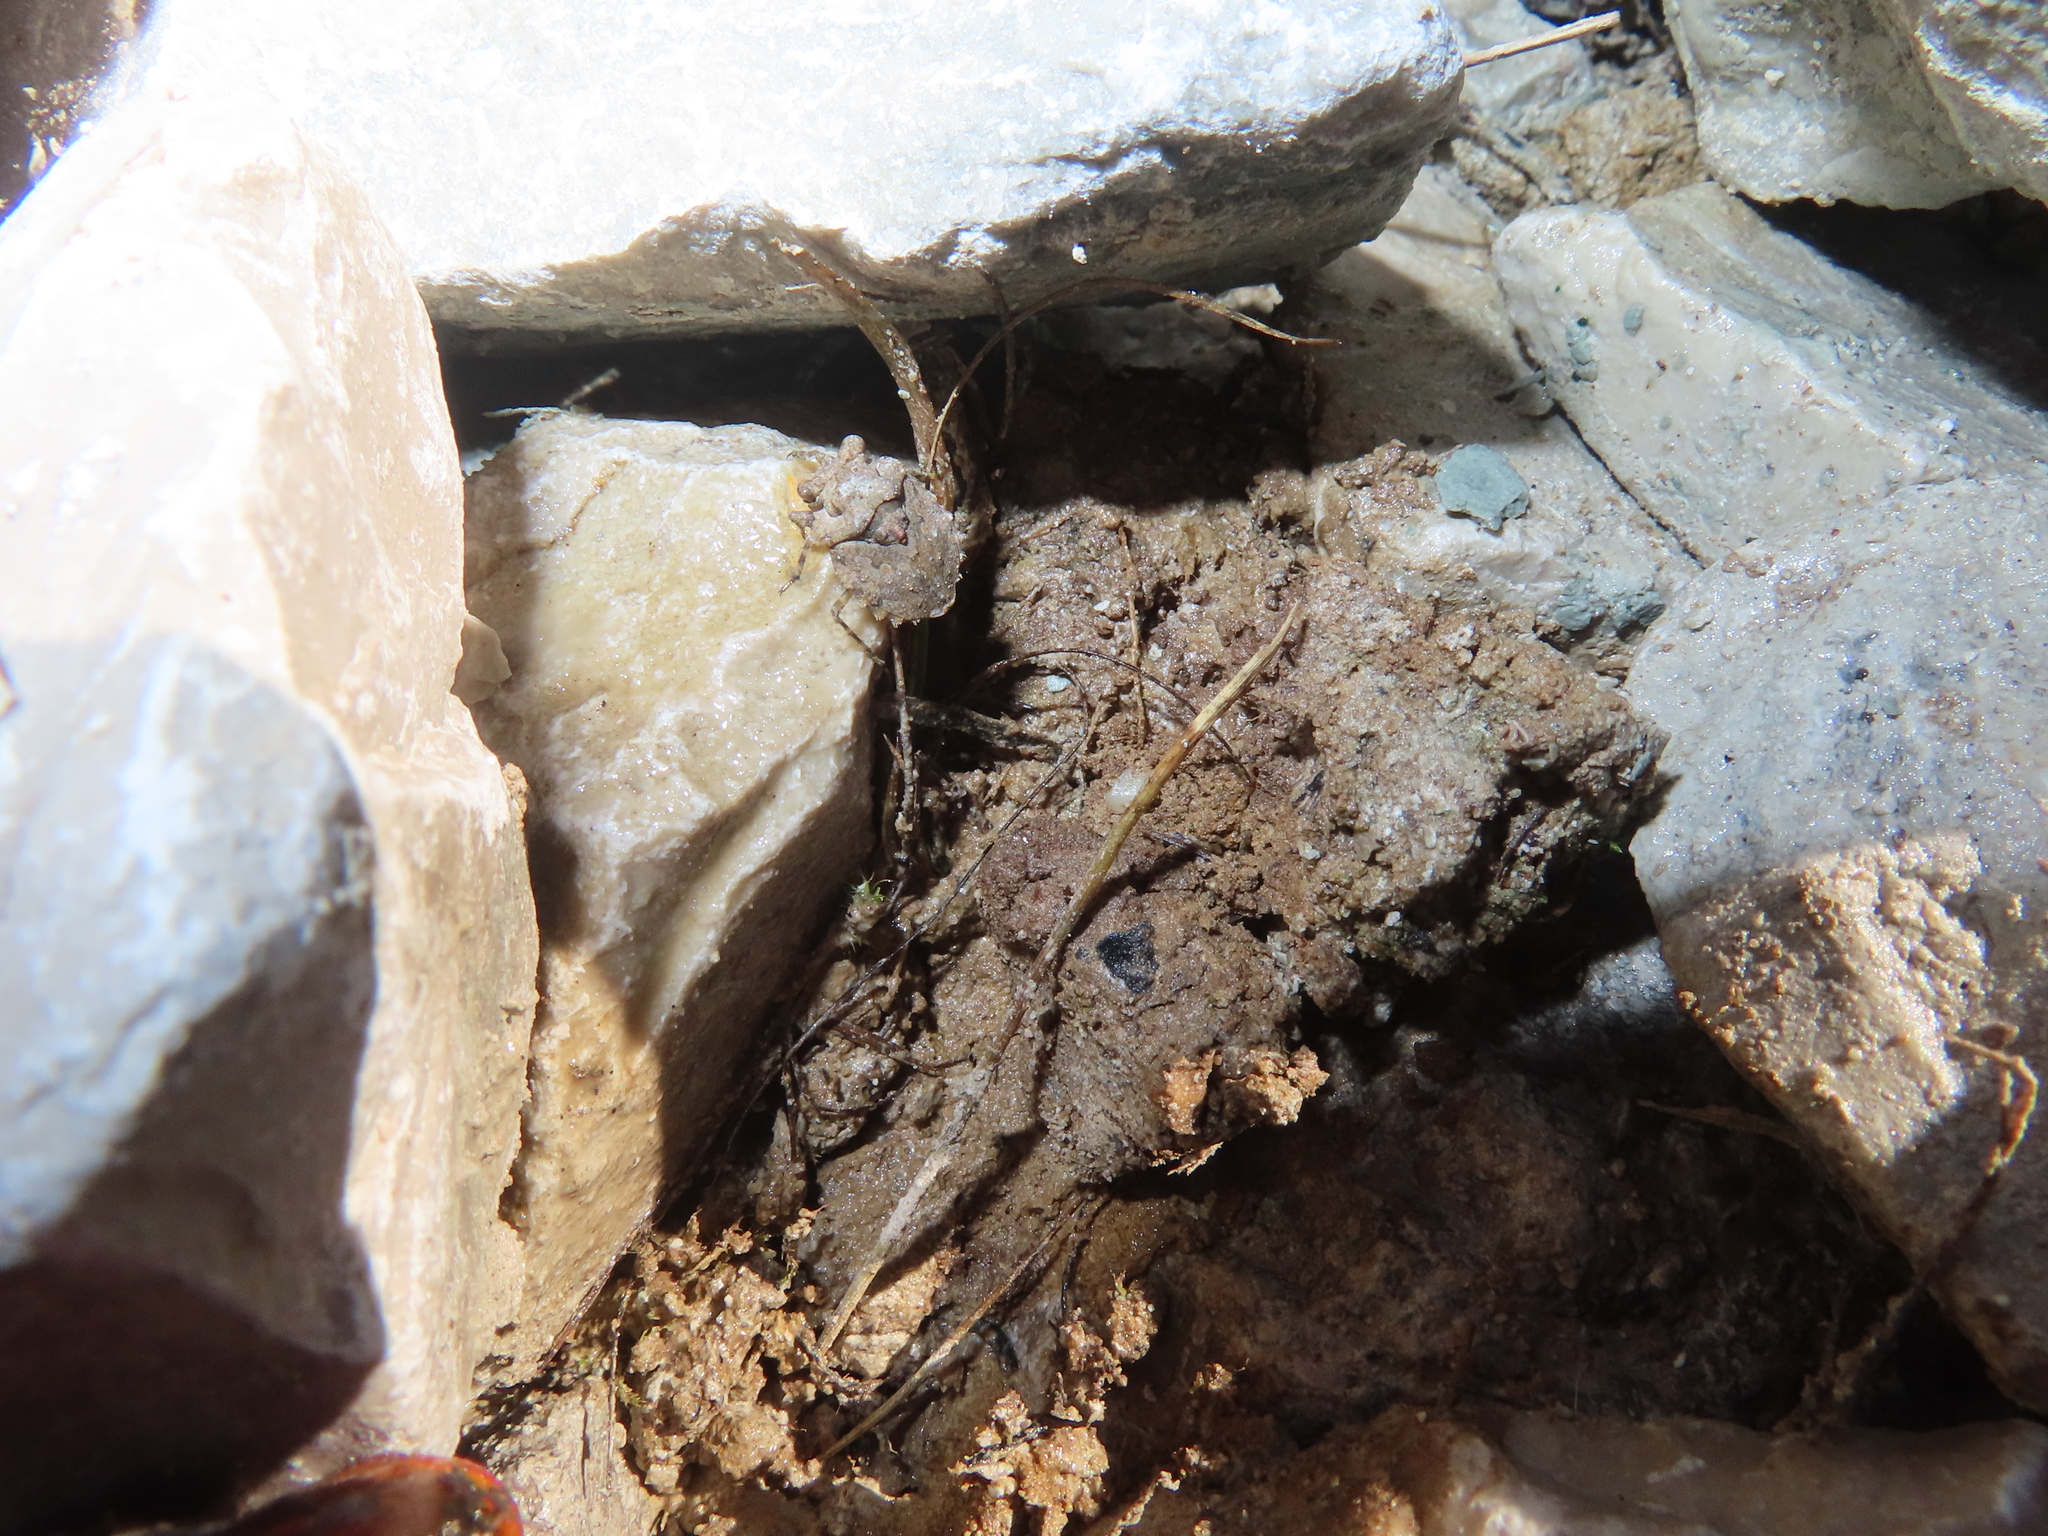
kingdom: Animalia
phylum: Arthropoda
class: Insecta
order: Hemiptera
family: Gelastocoridae
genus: Gelastocoris
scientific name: Gelastocoris oculatus
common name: Toad bug
